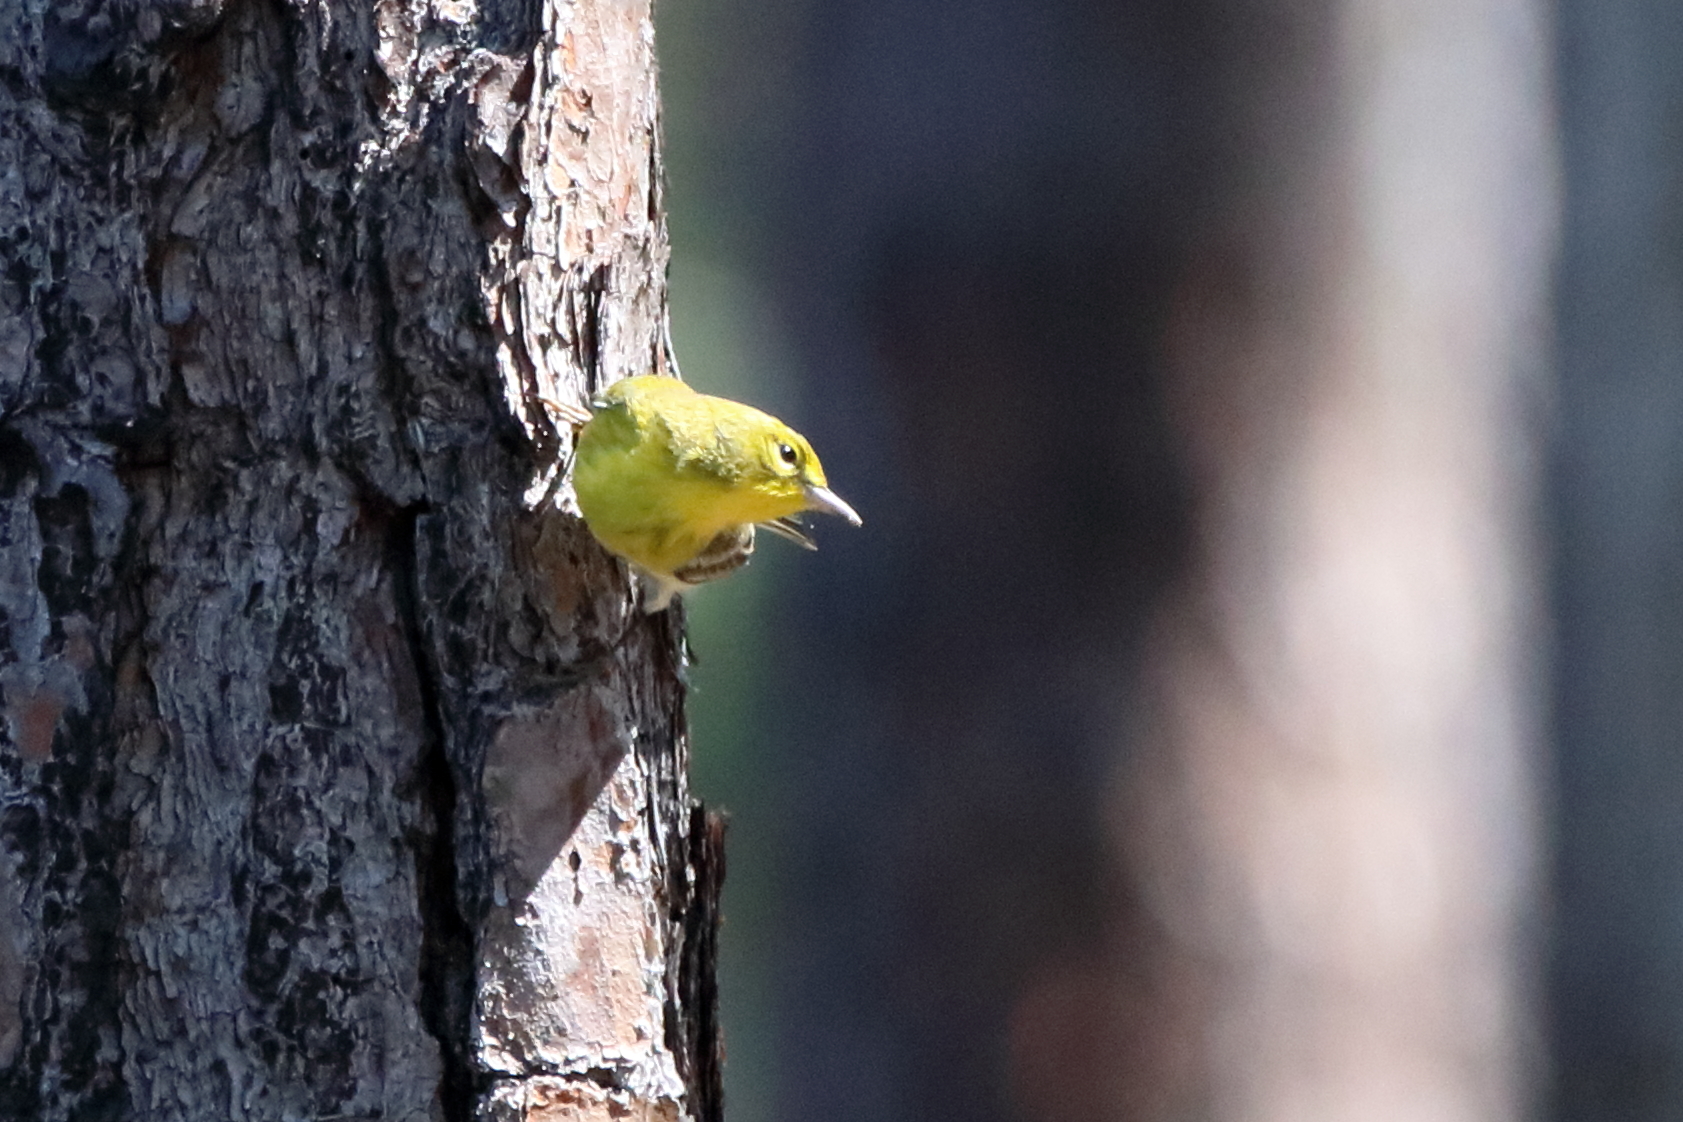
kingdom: Animalia
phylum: Chordata
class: Aves
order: Passeriformes
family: Parulidae
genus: Setophaga
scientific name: Setophaga pinus
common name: Pine warbler
